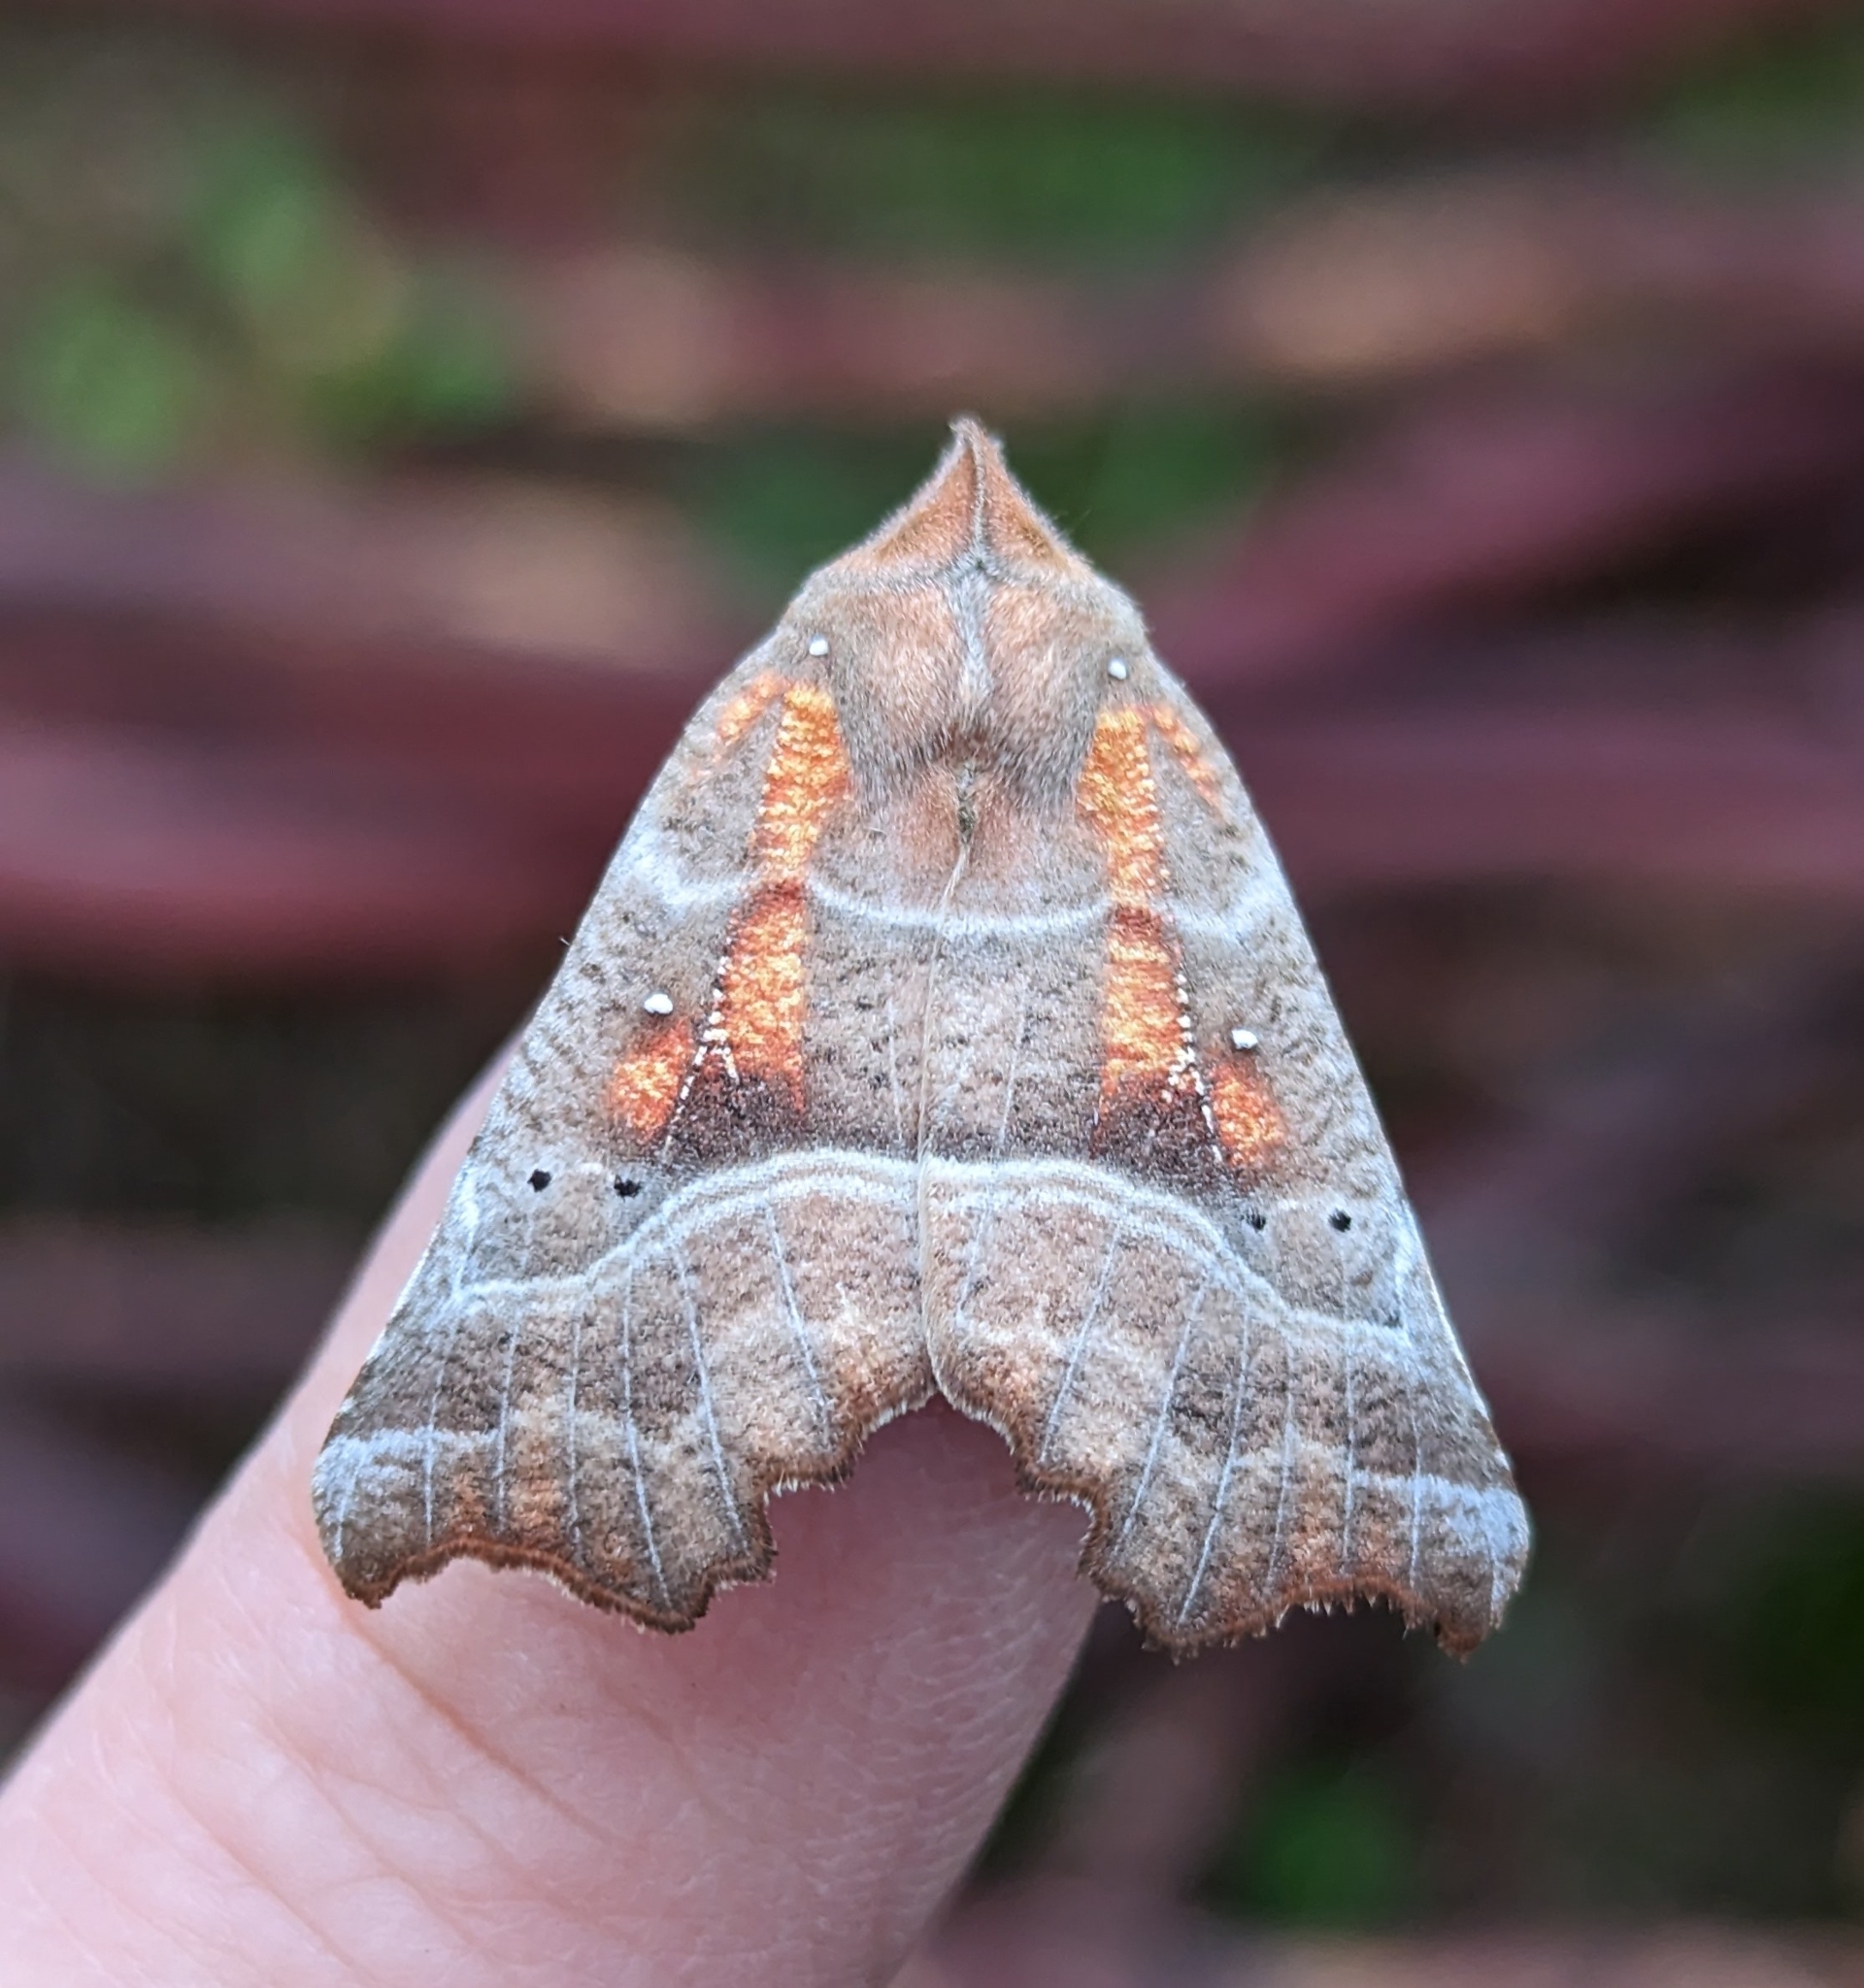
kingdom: Animalia
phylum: Arthropoda
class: Insecta
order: Lepidoptera
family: Erebidae
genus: Scoliopteryx
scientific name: Scoliopteryx libatrix
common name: Herald
